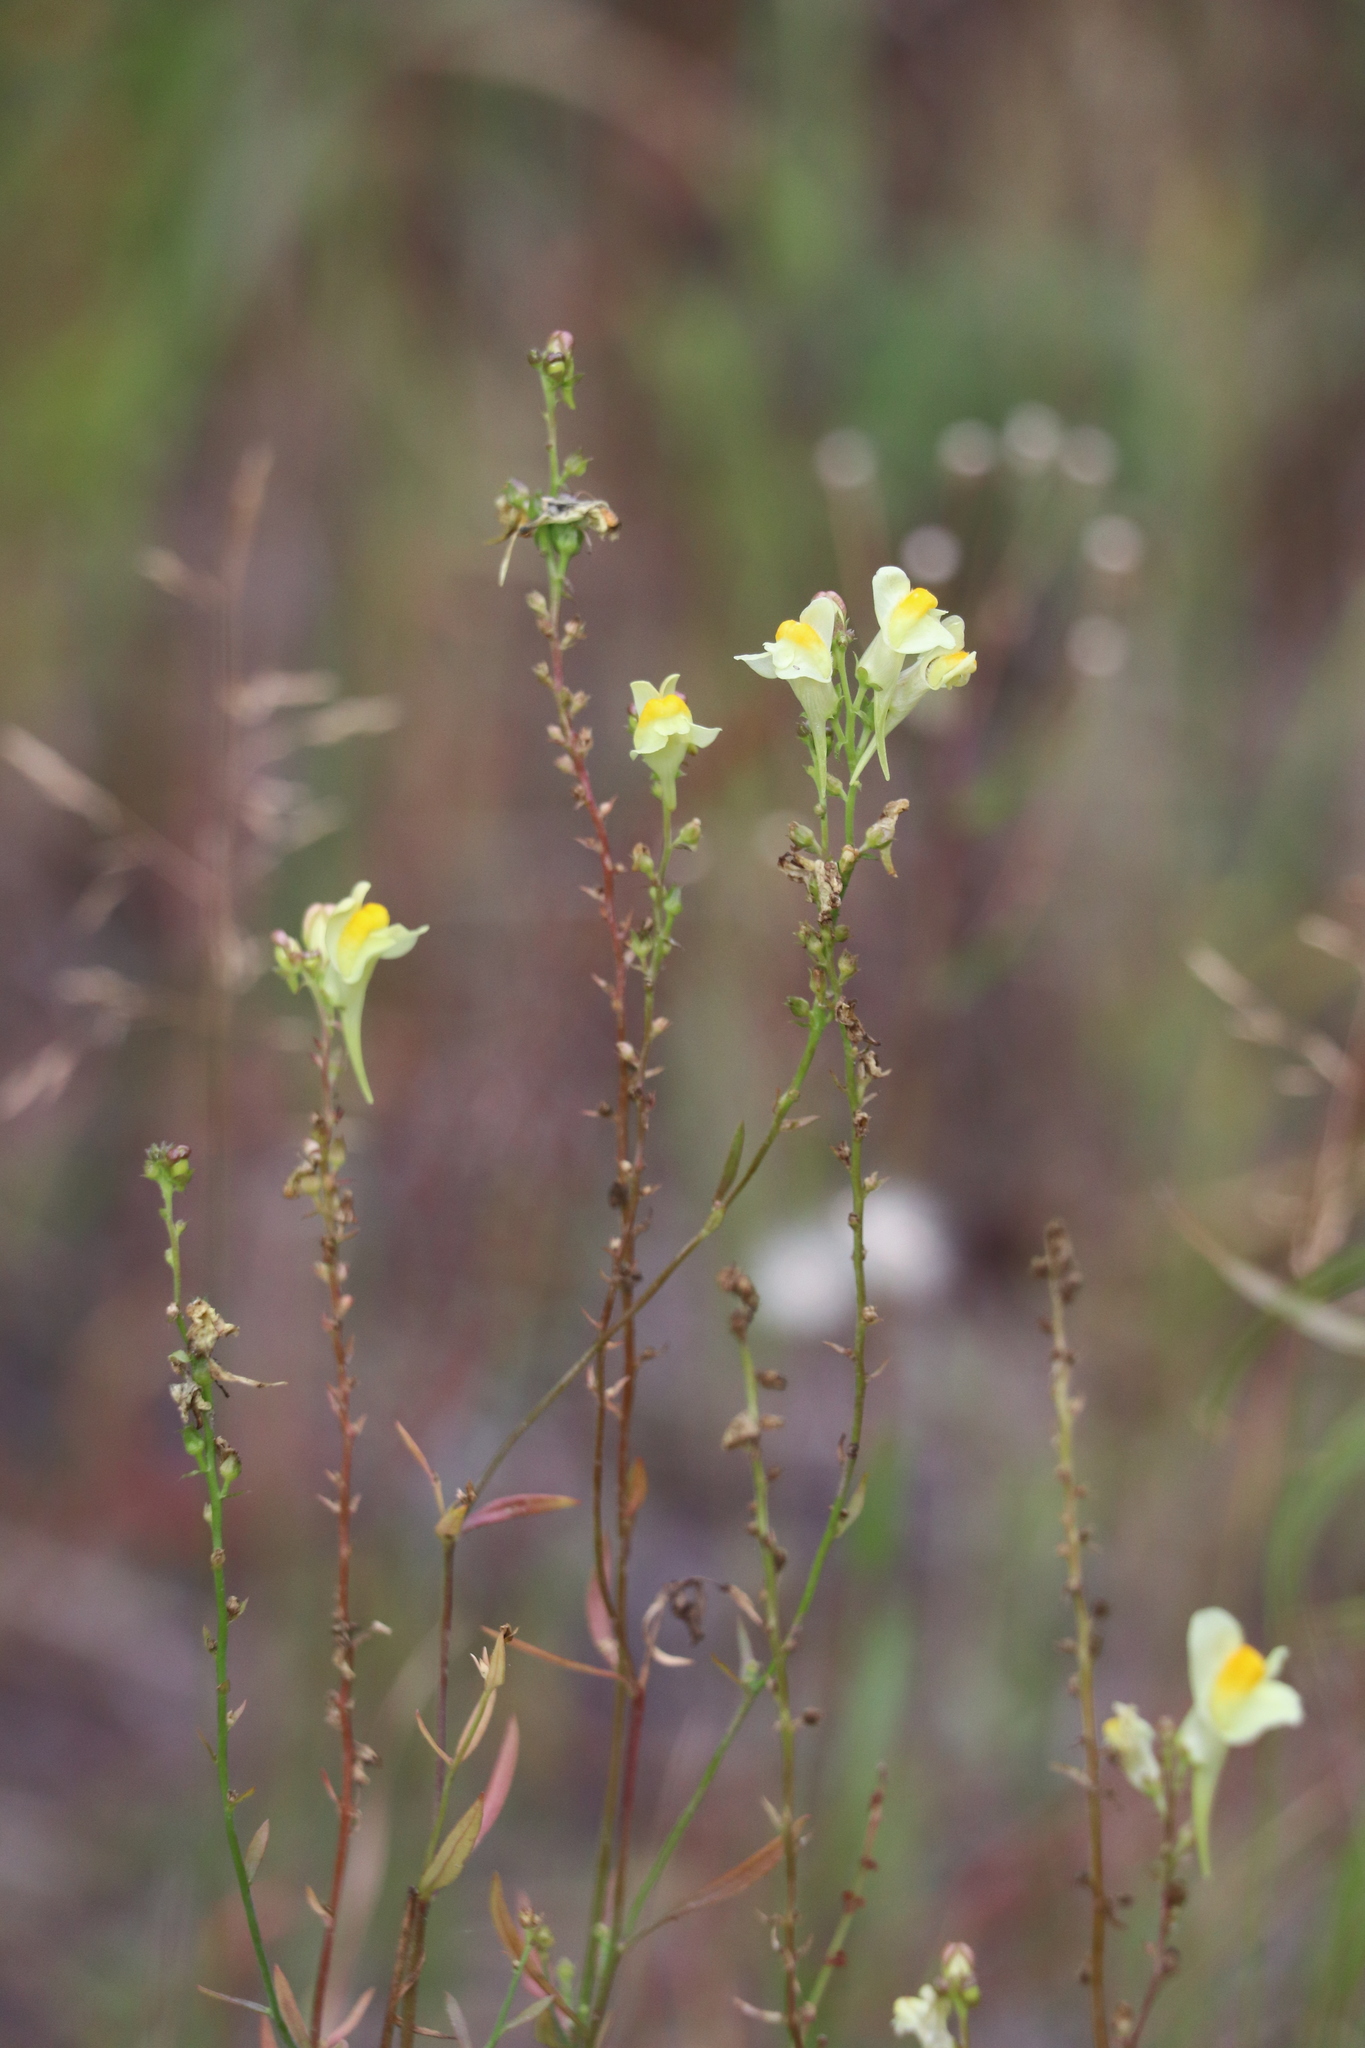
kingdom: Plantae
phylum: Tracheophyta
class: Magnoliopsida
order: Lamiales
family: Plantaginaceae
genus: Linaria
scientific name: Linaria vulgaris
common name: Butter and eggs
